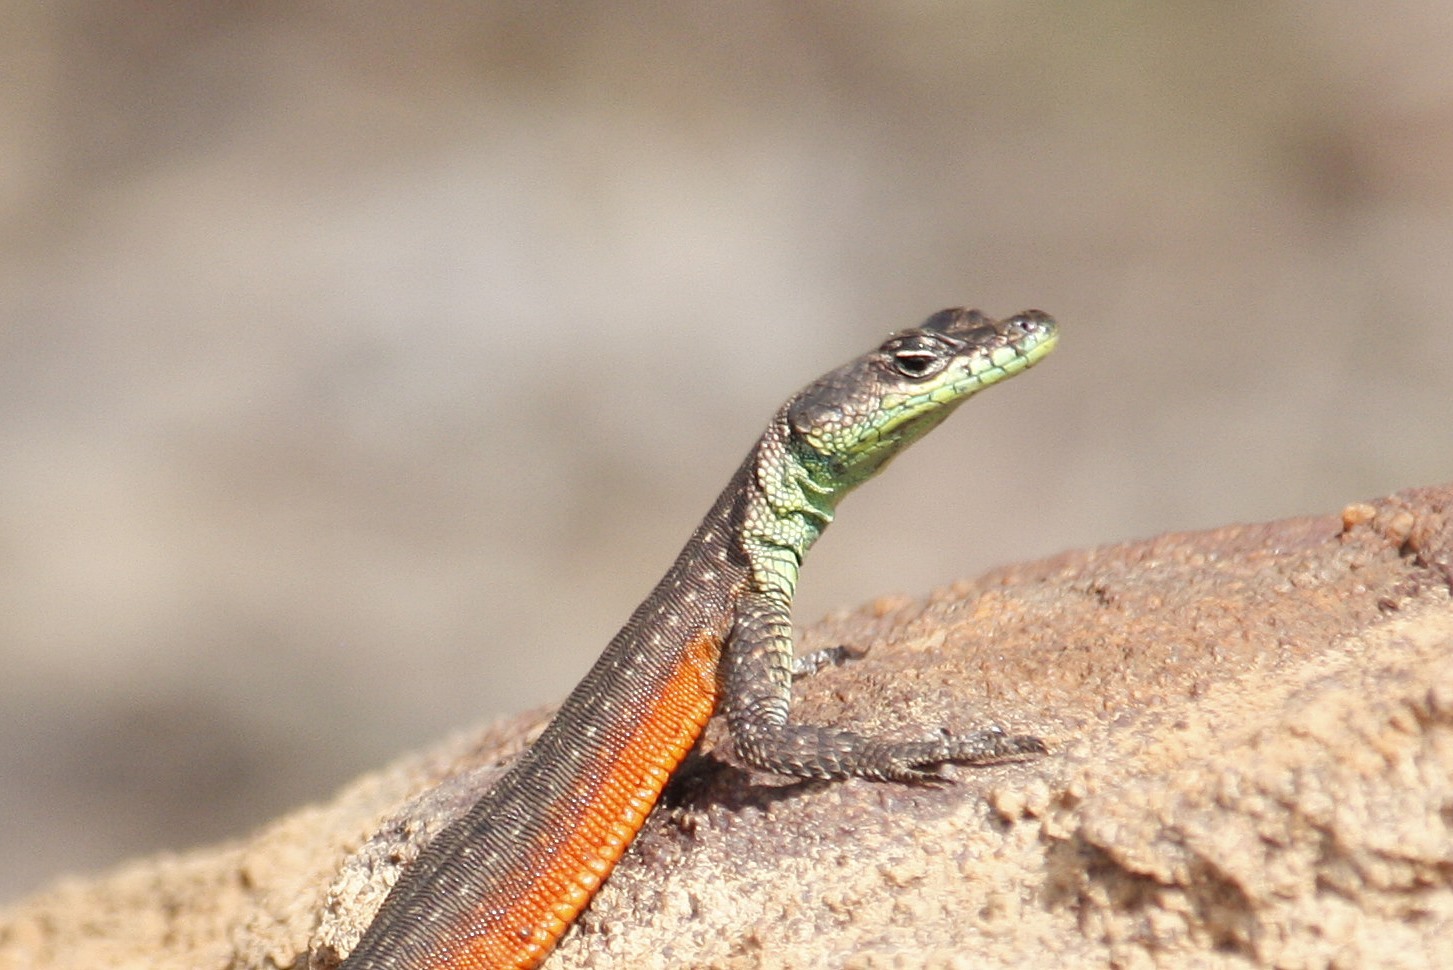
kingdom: Animalia
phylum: Chordata
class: Squamata
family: Cordylidae
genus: Platysaurus
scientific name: Platysaurus minor
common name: Waterberg flat lizard
